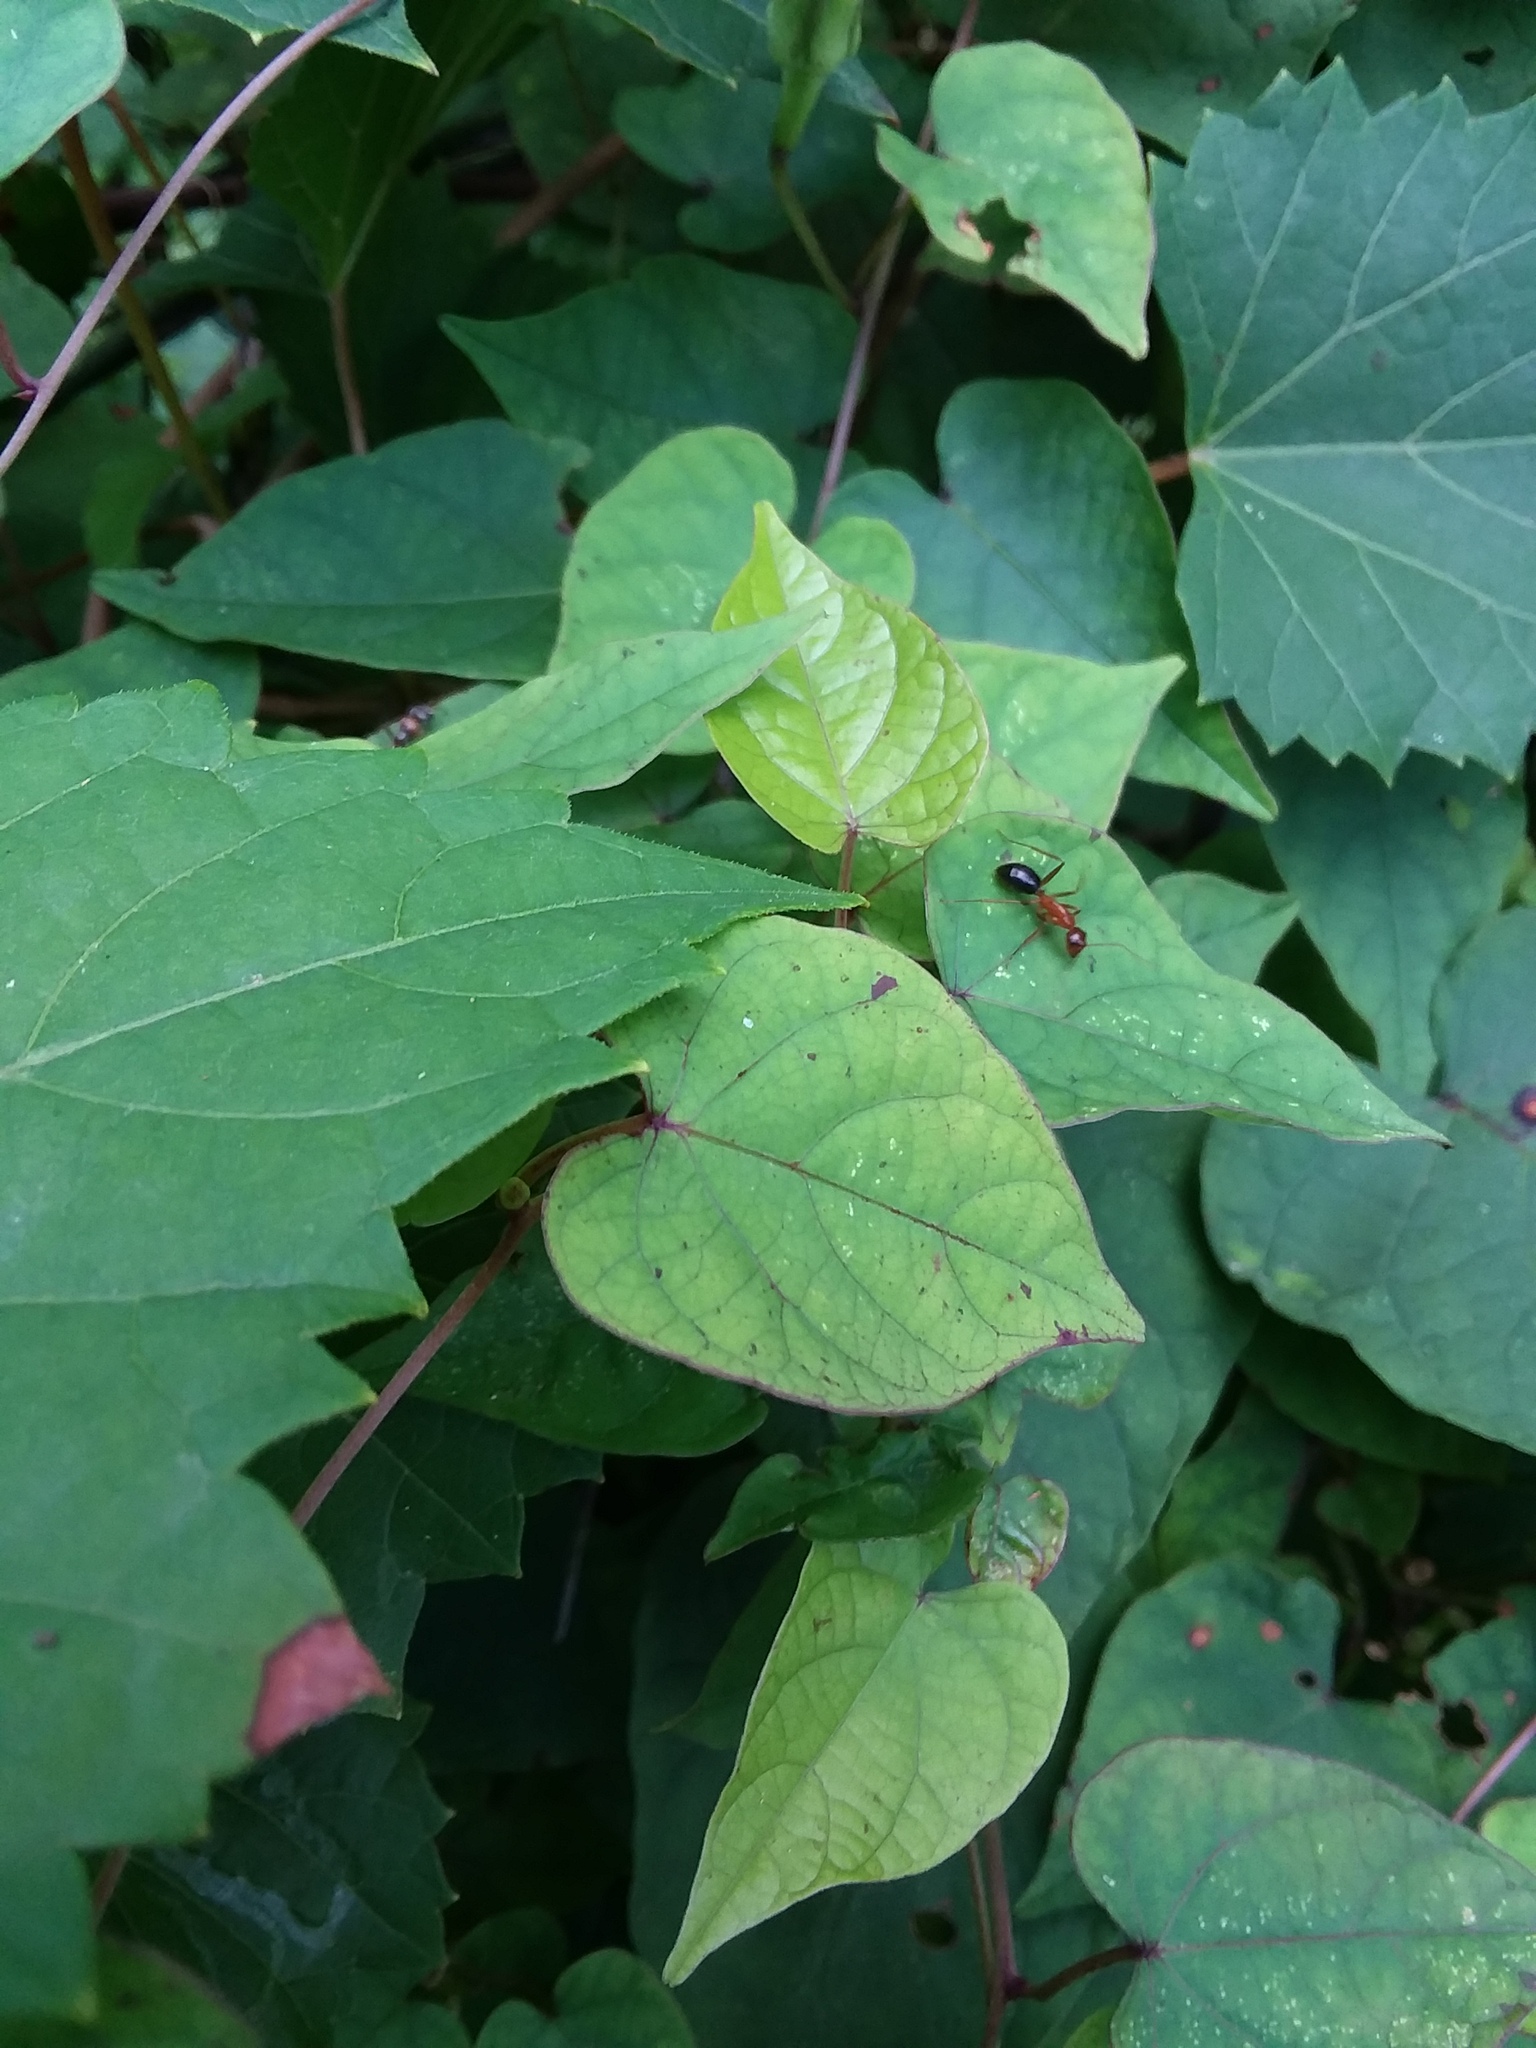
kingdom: Animalia
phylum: Arthropoda
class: Insecta
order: Hymenoptera
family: Formicidae
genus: Camponotus
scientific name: Camponotus floridanus
